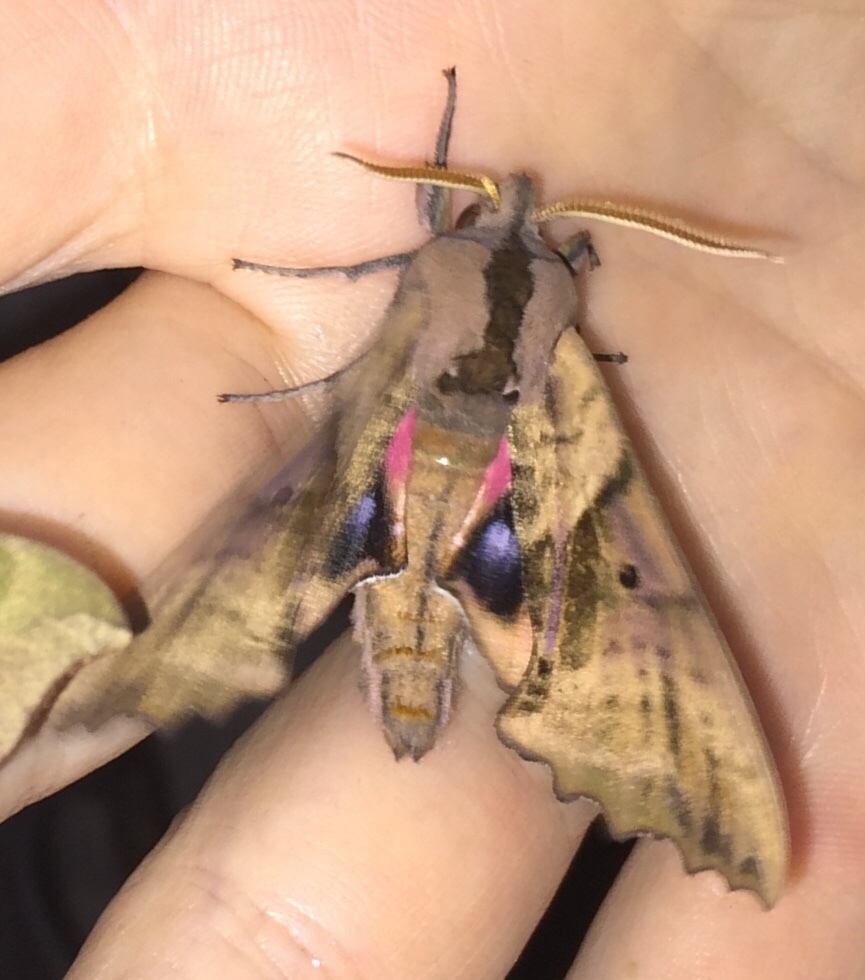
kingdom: Animalia
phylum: Arthropoda
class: Insecta
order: Lepidoptera
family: Sphingidae
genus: Paonias
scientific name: Paonias excaecata
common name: Blind-eyed sphinx
